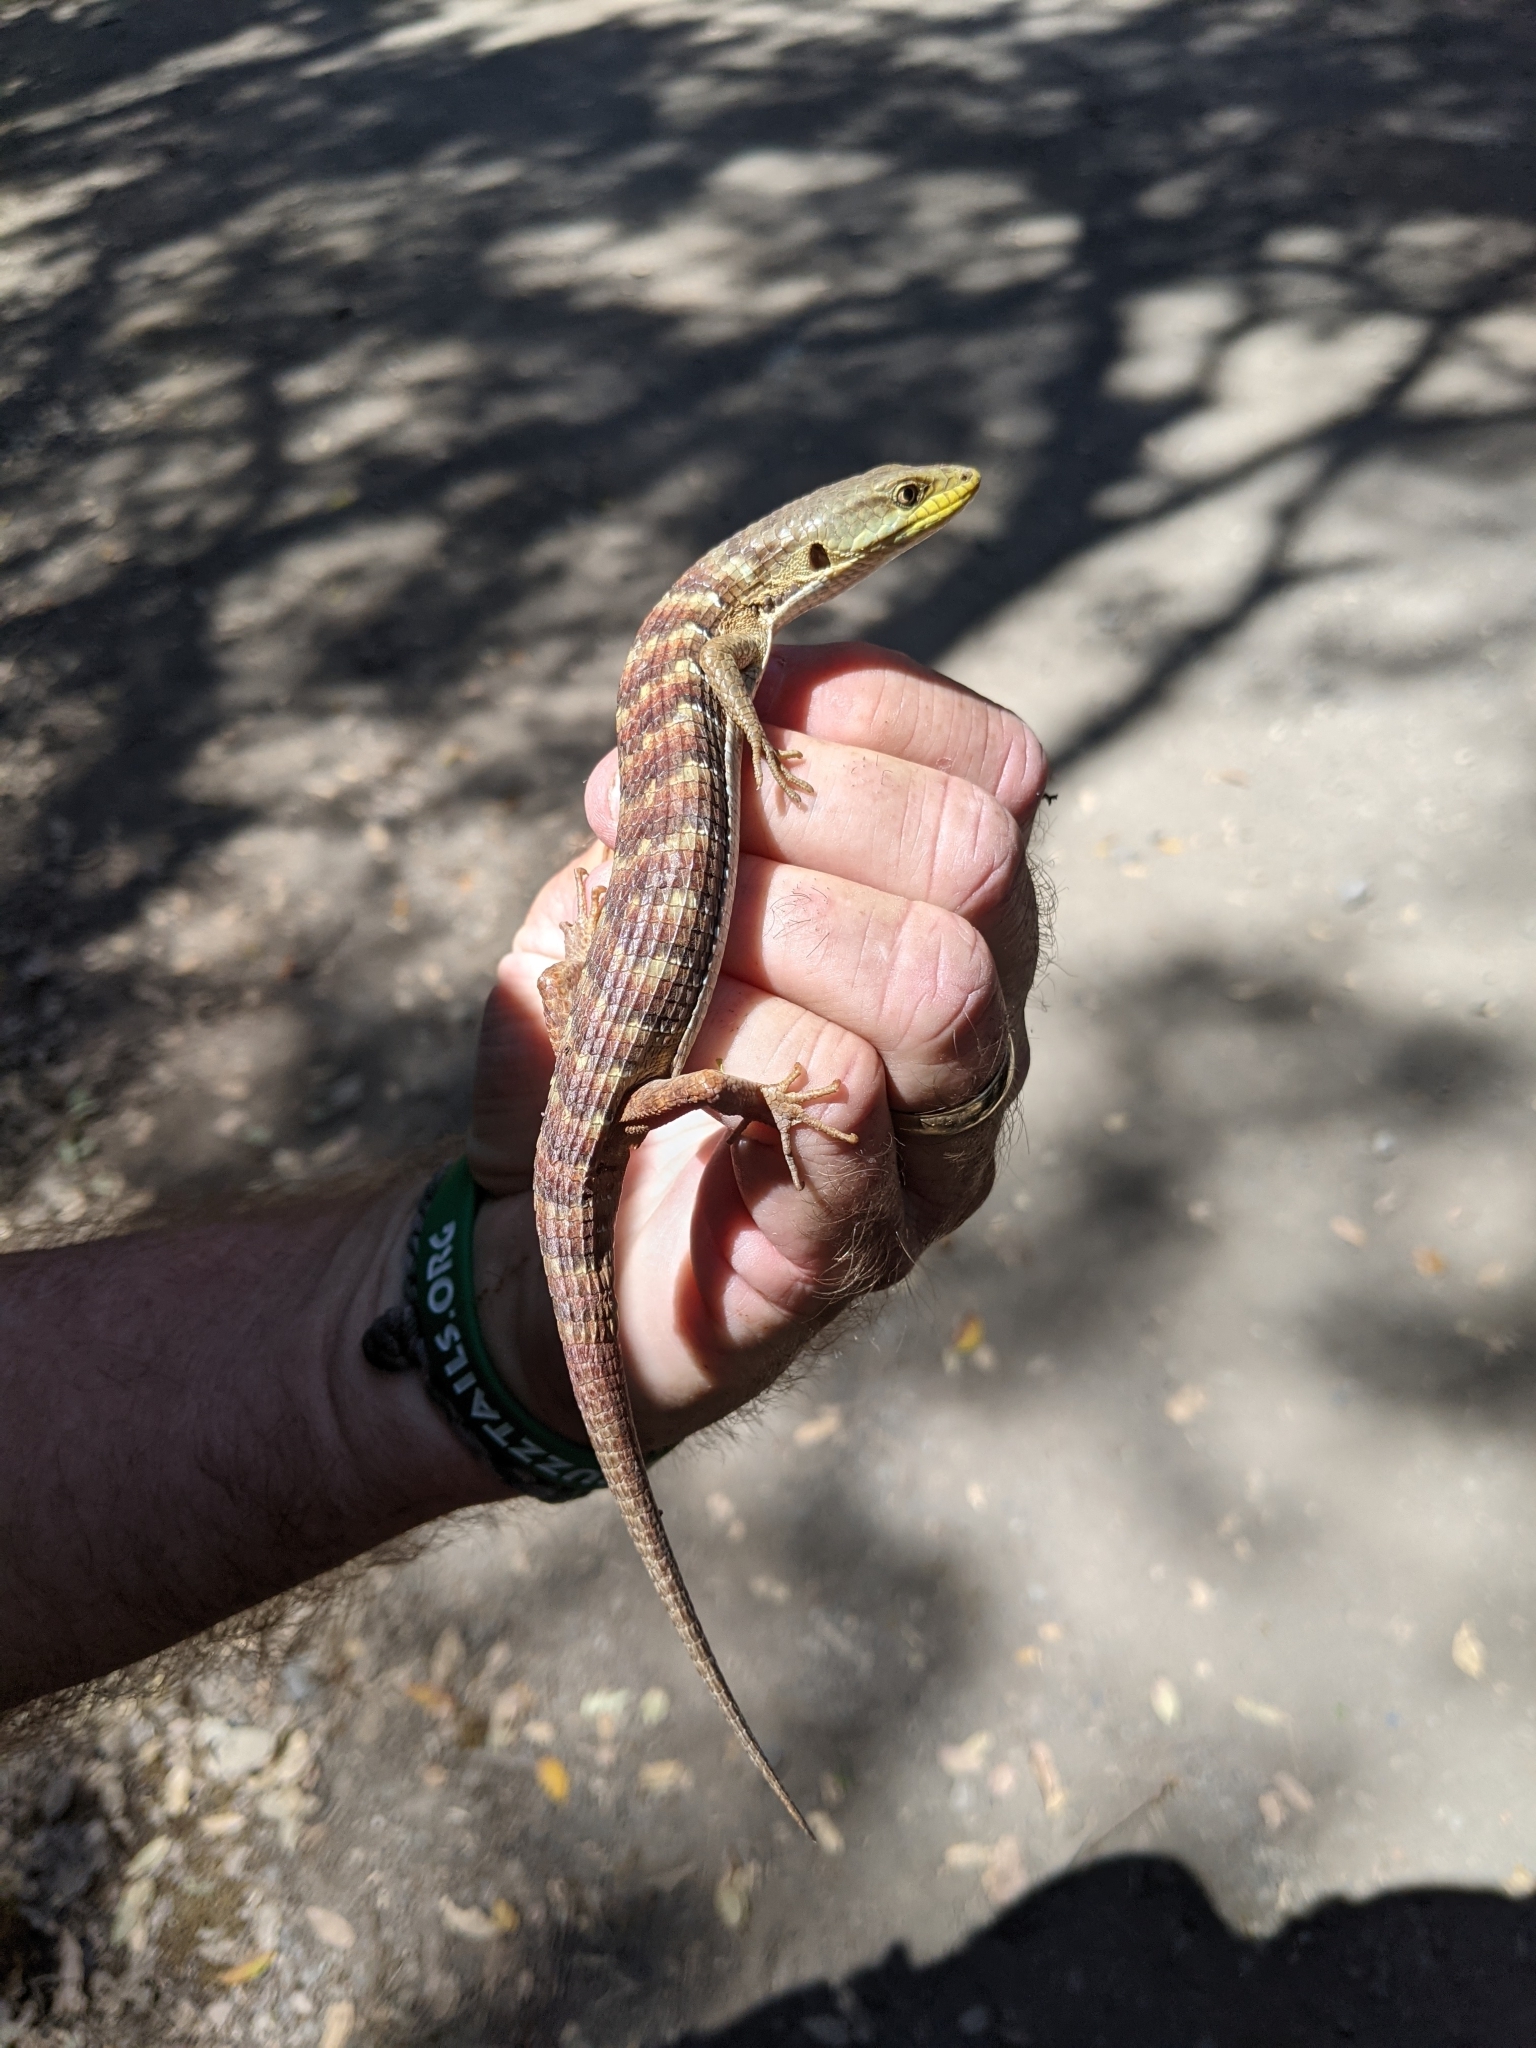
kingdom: Animalia
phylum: Chordata
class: Squamata
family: Anguidae
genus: Elgaria
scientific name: Elgaria multicarinata
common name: Southern alligator lizard
